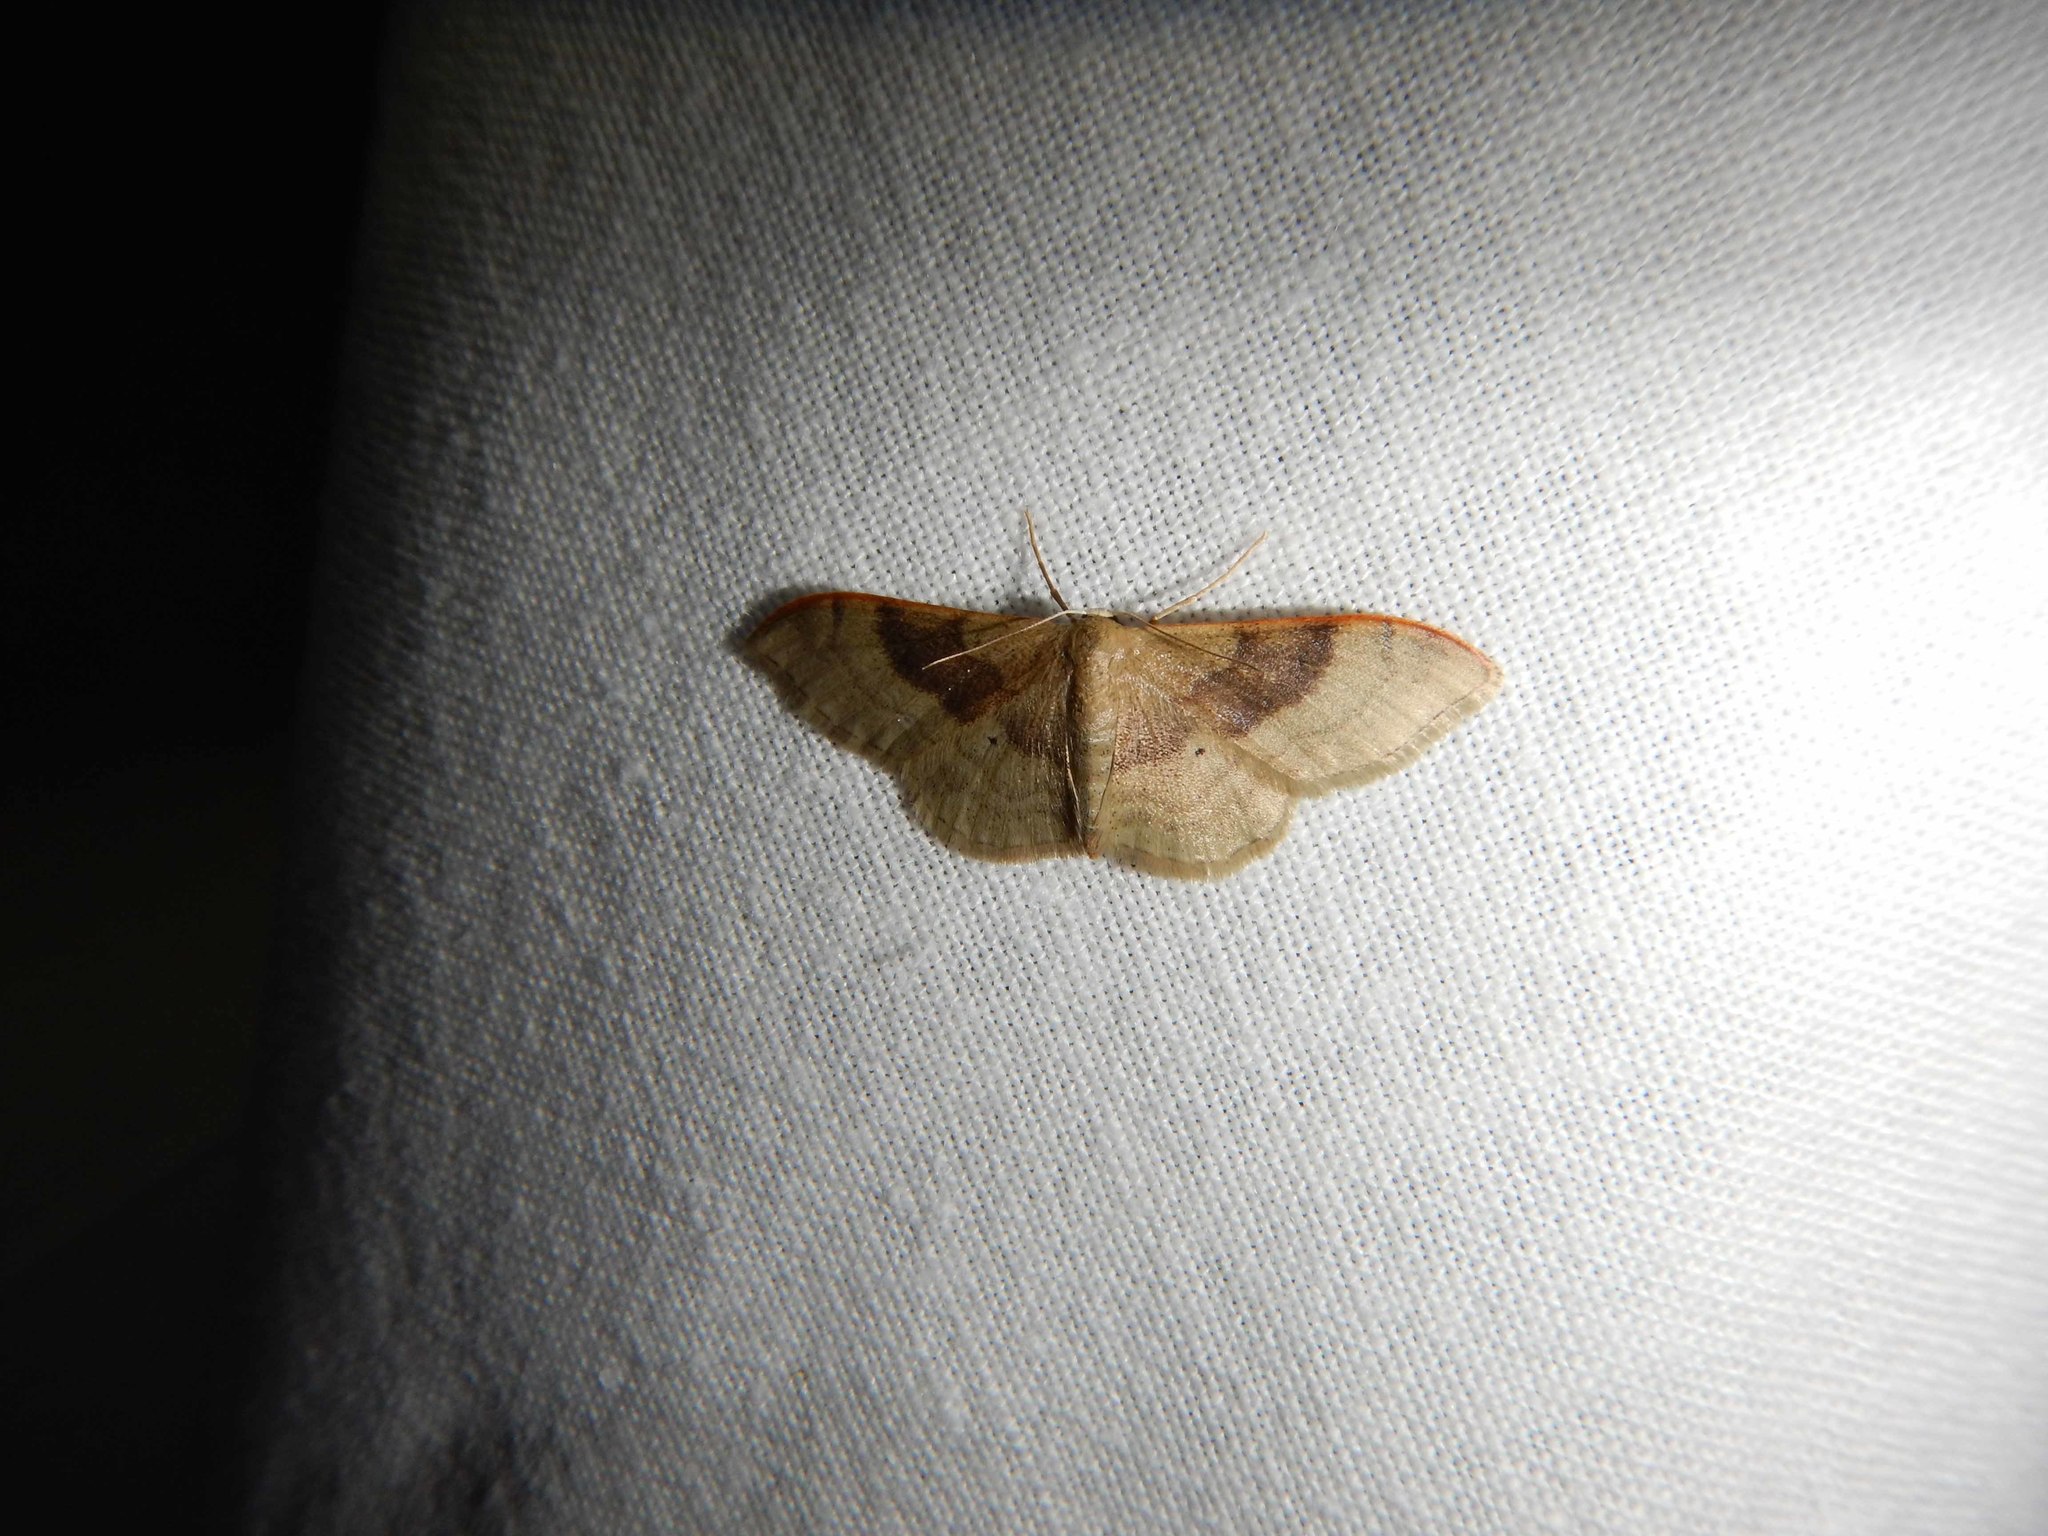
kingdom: Animalia
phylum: Arthropoda
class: Insecta
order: Lepidoptera
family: Geometridae
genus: Idaea
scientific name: Idaea degeneraria
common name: Portland ribbon wave
